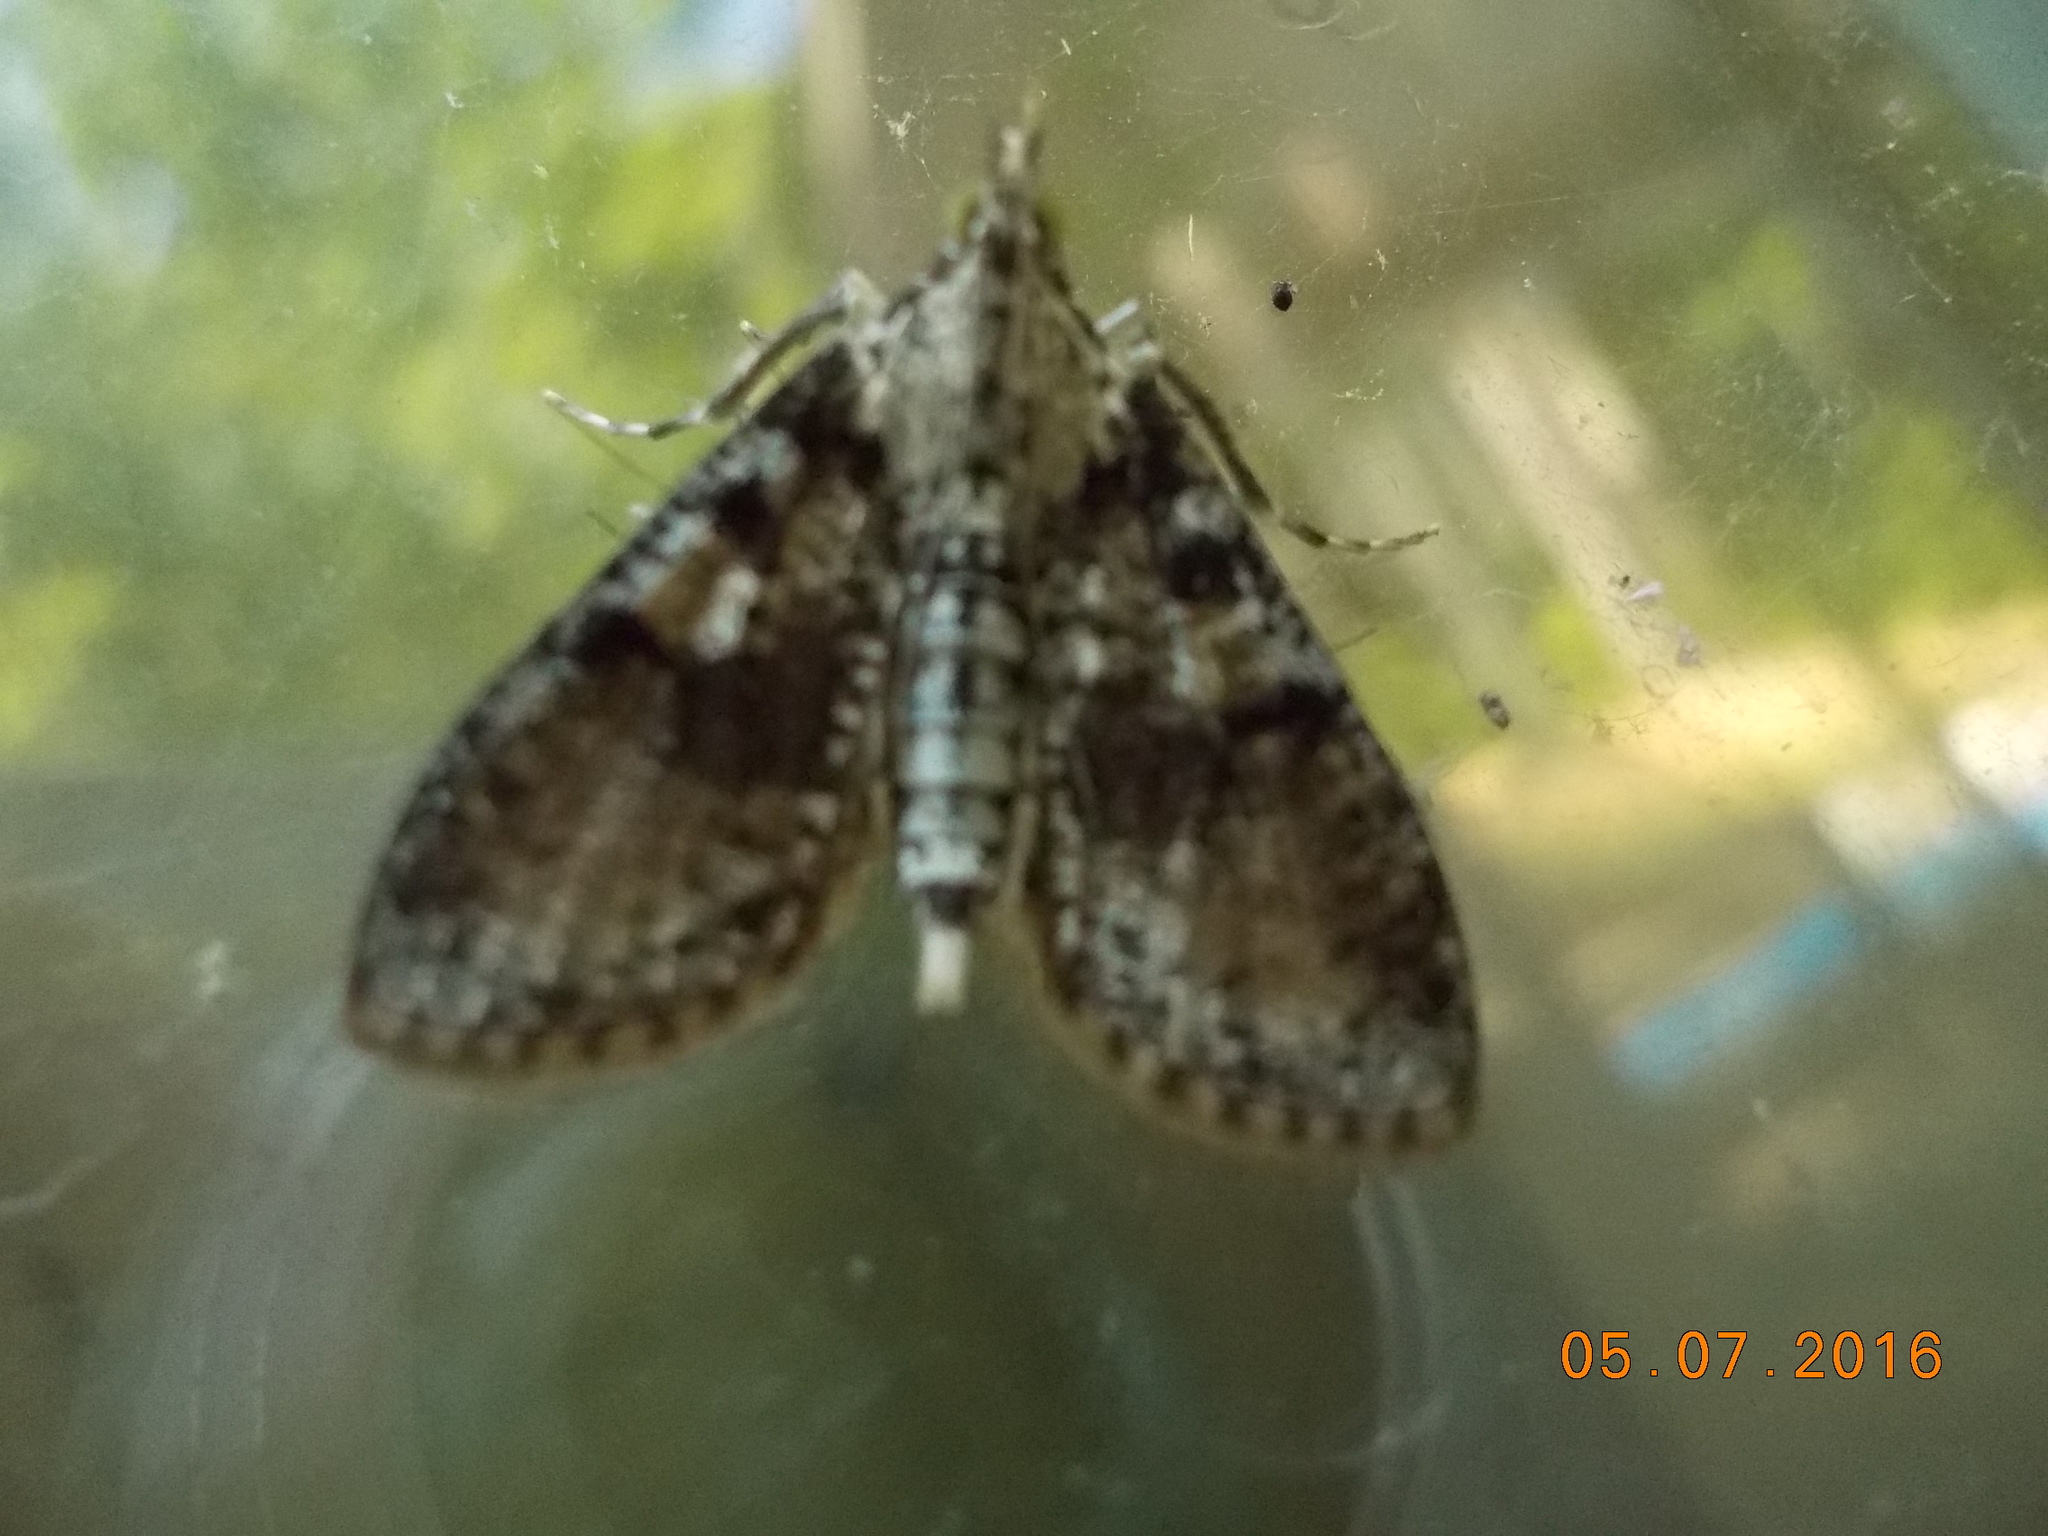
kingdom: Animalia
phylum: Arthropoda
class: Insecta
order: Lepidoptera
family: Crambidae
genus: Palpita
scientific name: Palpita magniferalis
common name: Splendid palpita moth
